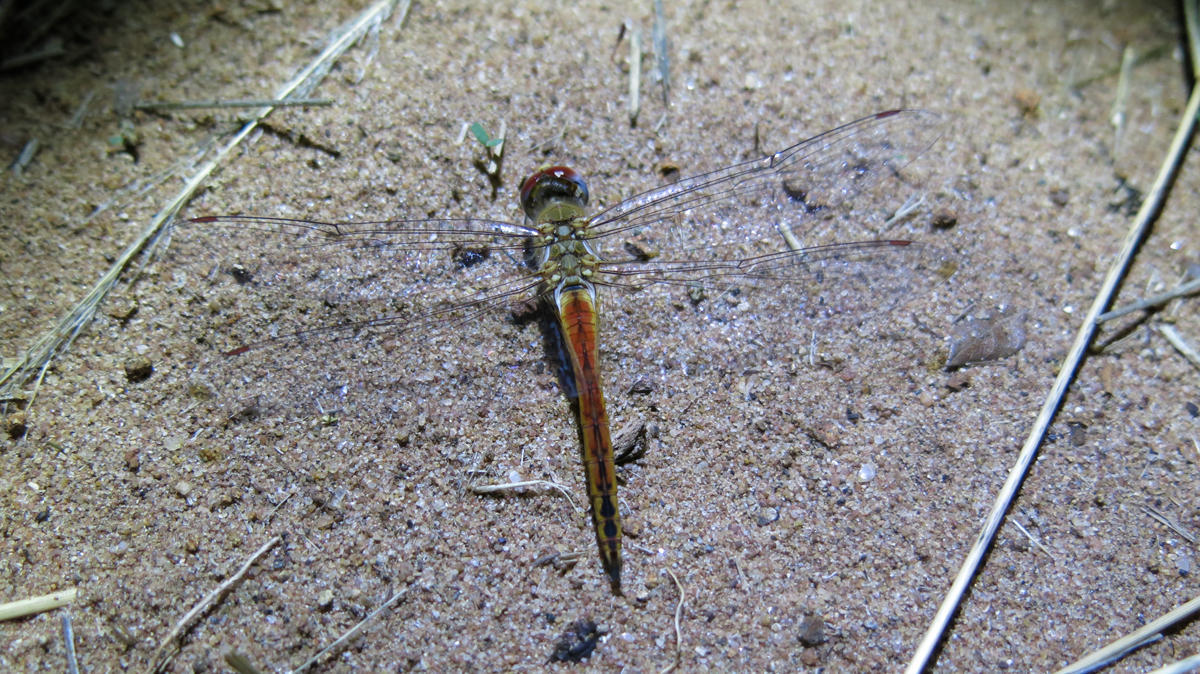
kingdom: Animalia
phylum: Arthropoda
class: Insecta
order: Odonata
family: Libellulidae
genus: Pantala
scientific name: Pantala flavescens
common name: Wandering glider
